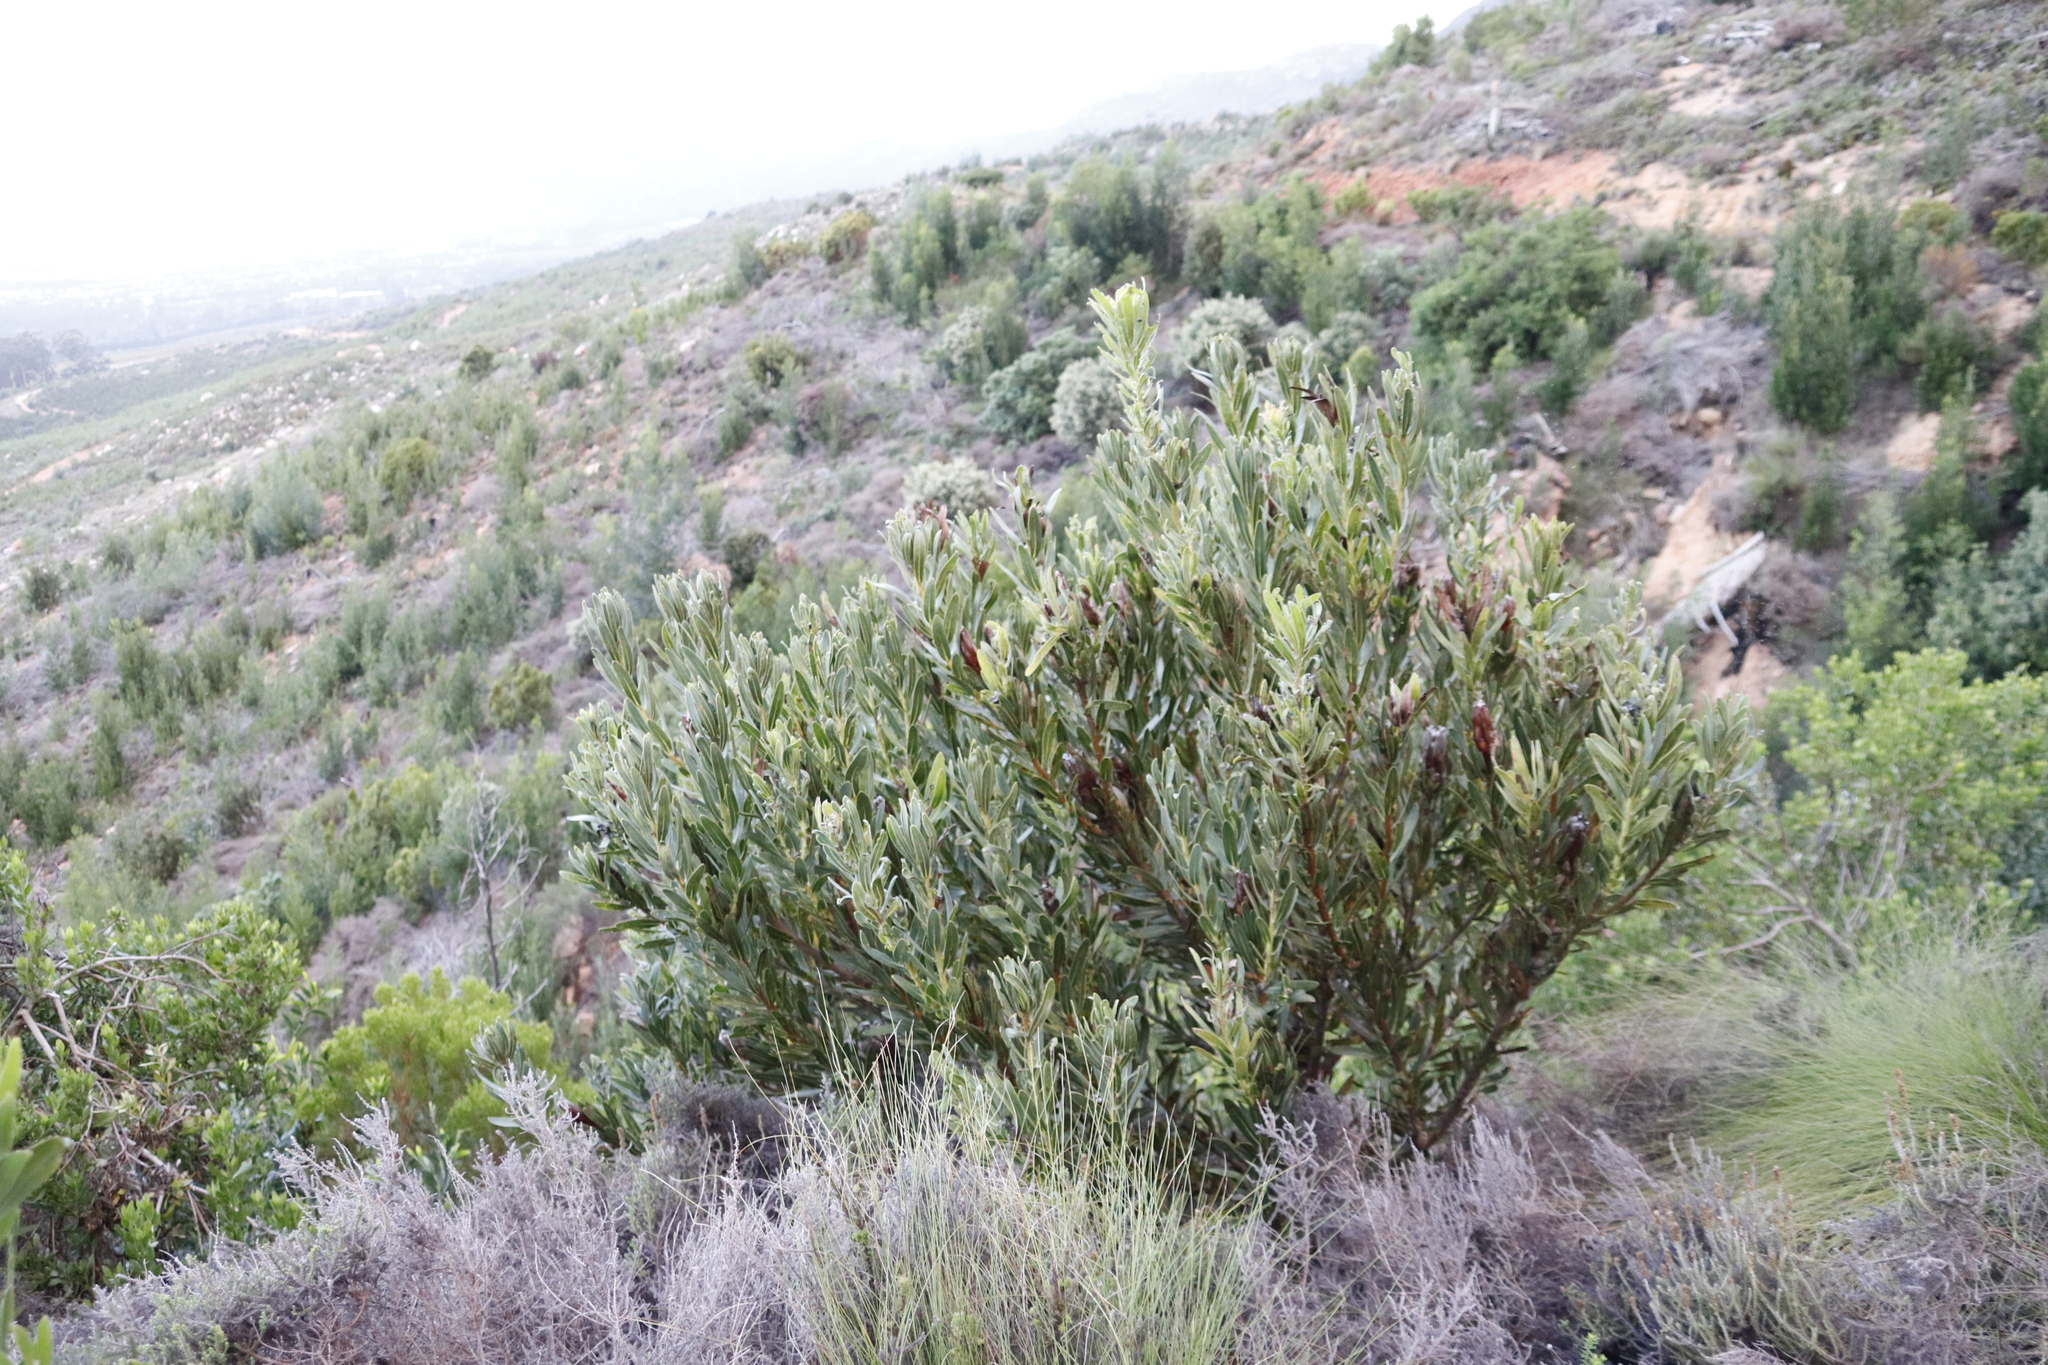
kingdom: Plantae
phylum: Tracheophyta
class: Magnoliopsida
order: Proteales
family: Proteaceae
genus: Protea
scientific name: Protea lepidocarpodendron
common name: Black-bearded protea
